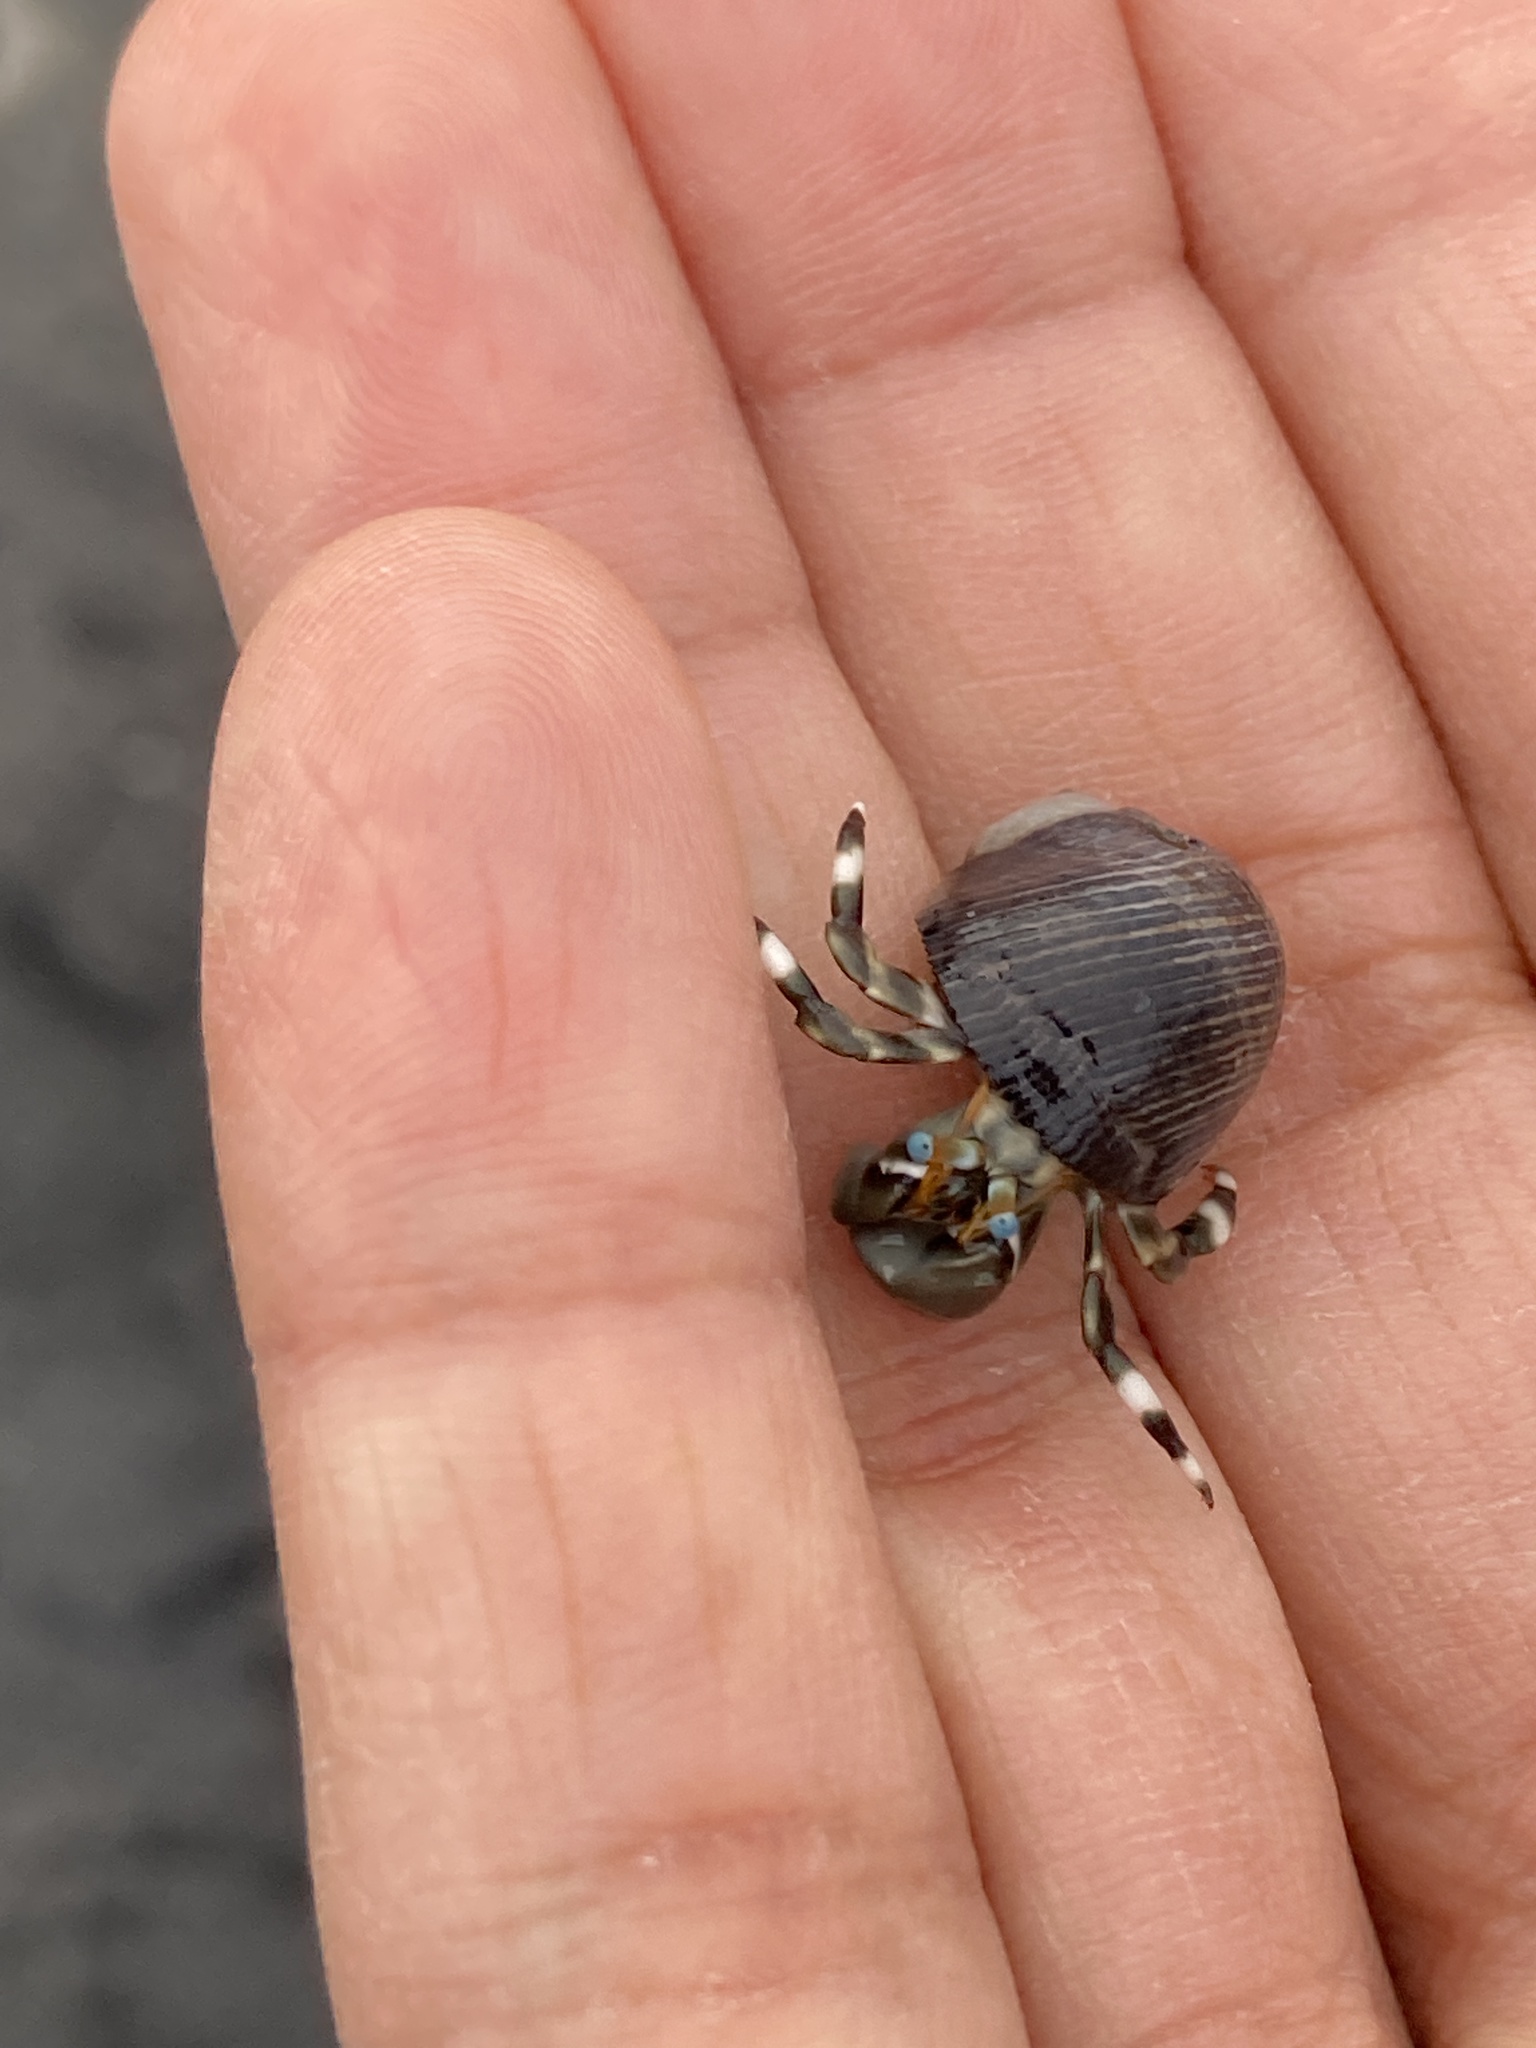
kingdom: Animalia
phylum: Arthropoda
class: Malacostraca
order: Decapoda
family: Diogenidae
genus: Calcinus
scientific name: Calcinus seurati
